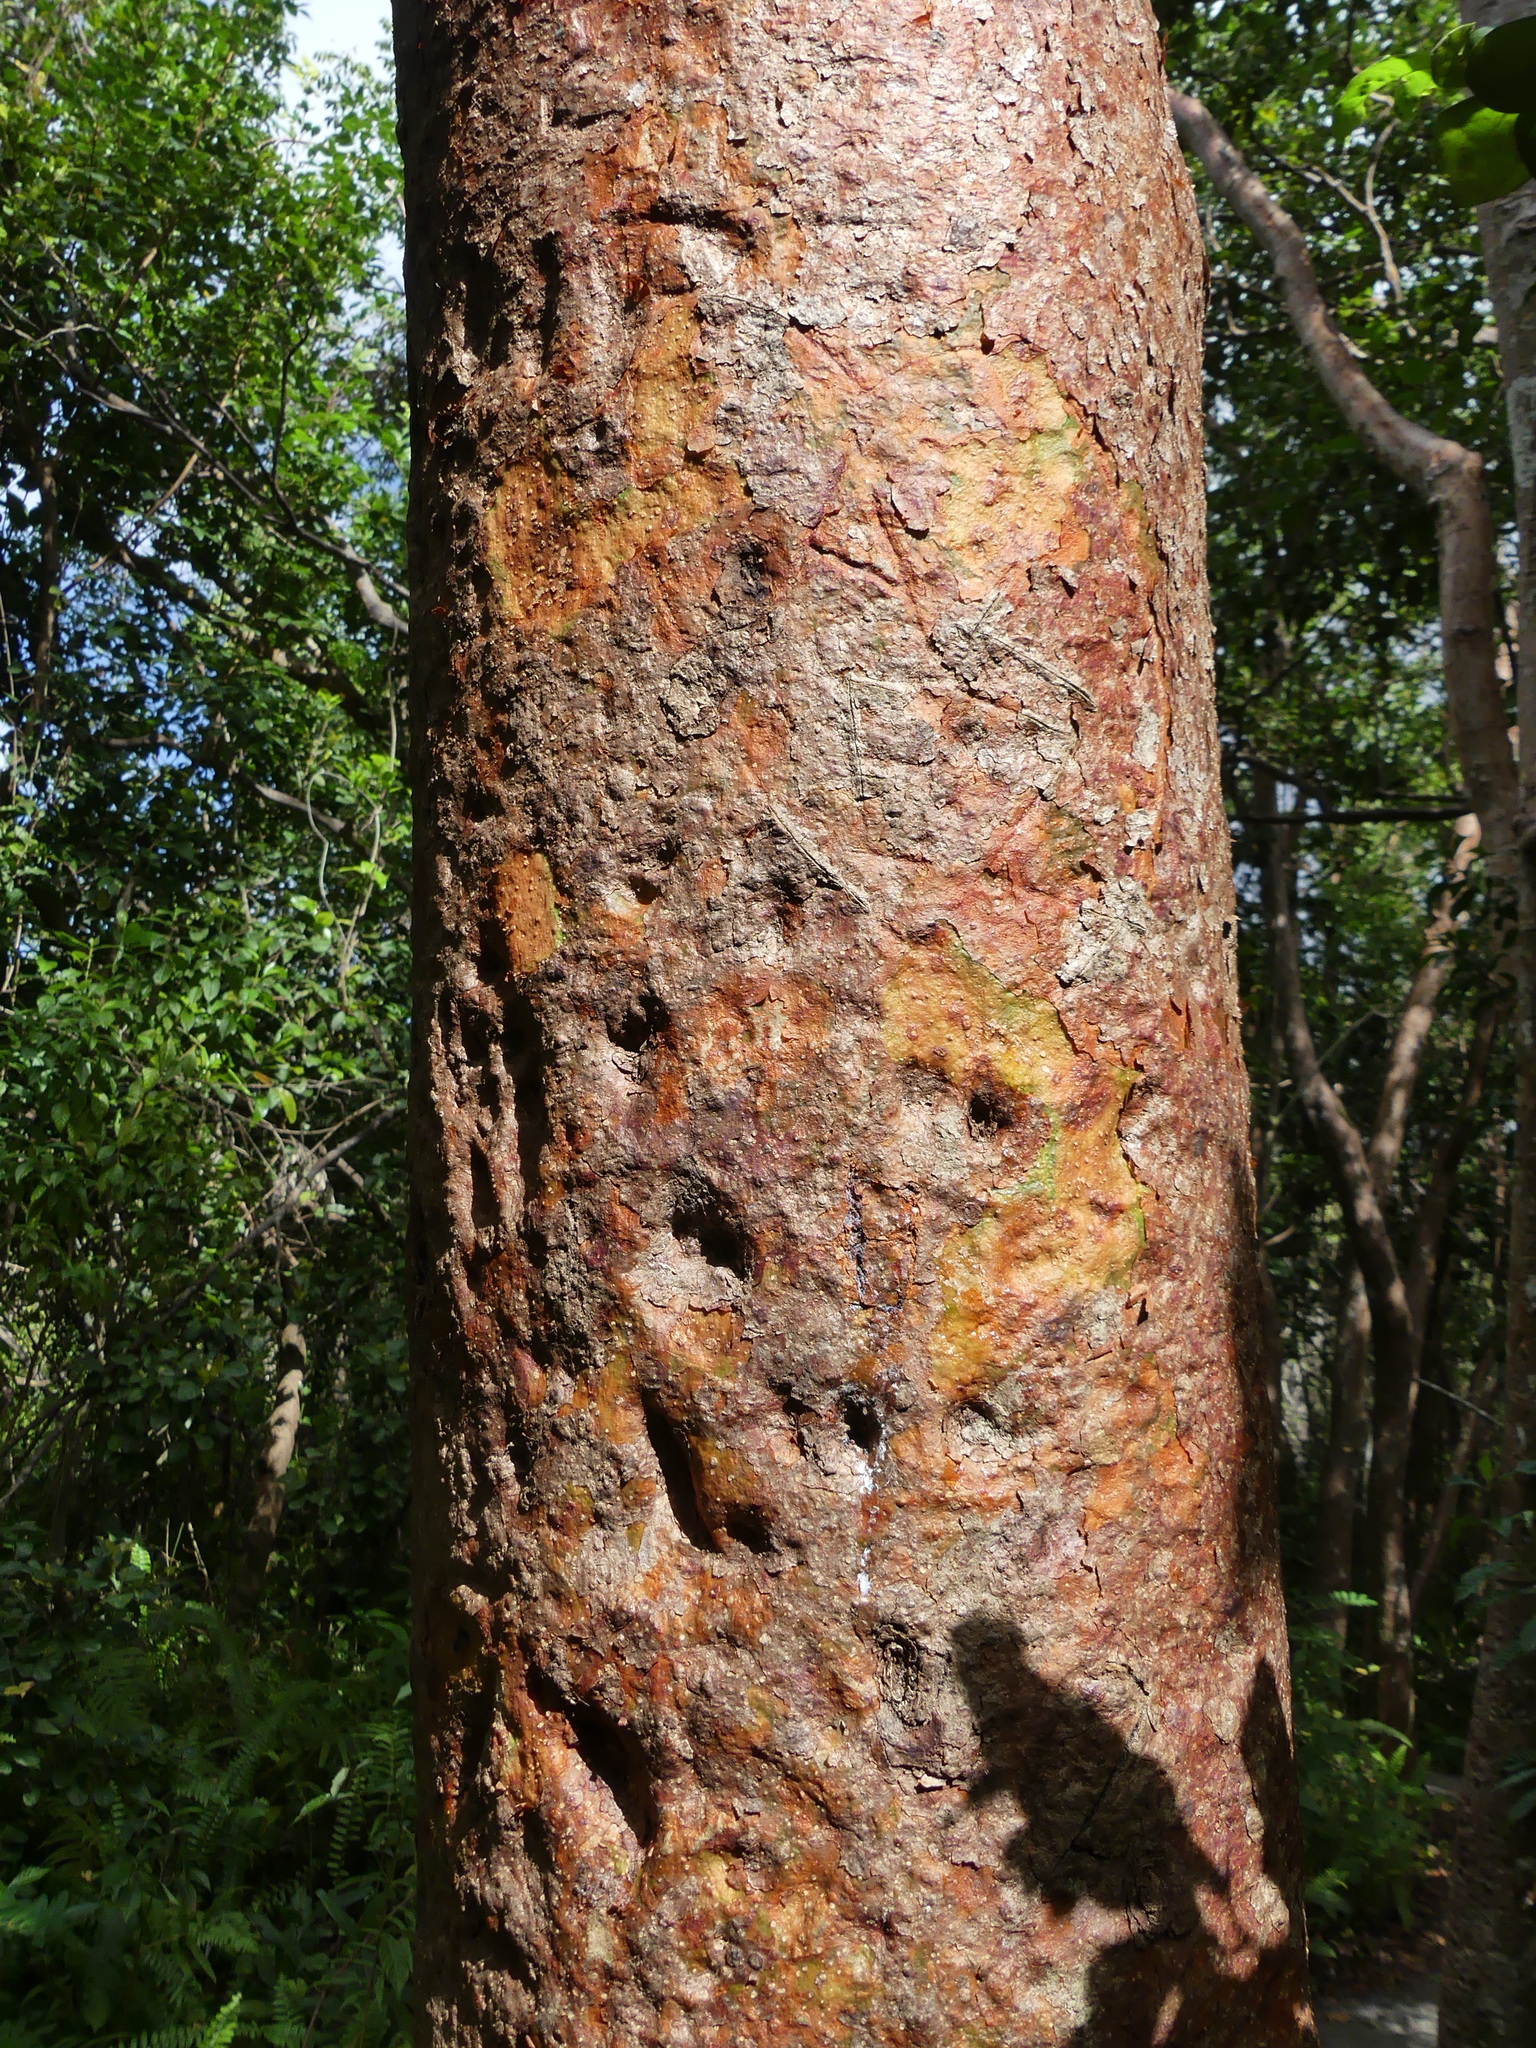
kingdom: Plantae
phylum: Tracheophyta
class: Magnoliopsida
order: Sapindales
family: Burseraceae
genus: Bursera
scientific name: Bursera simaruba
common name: Turpentine tree
